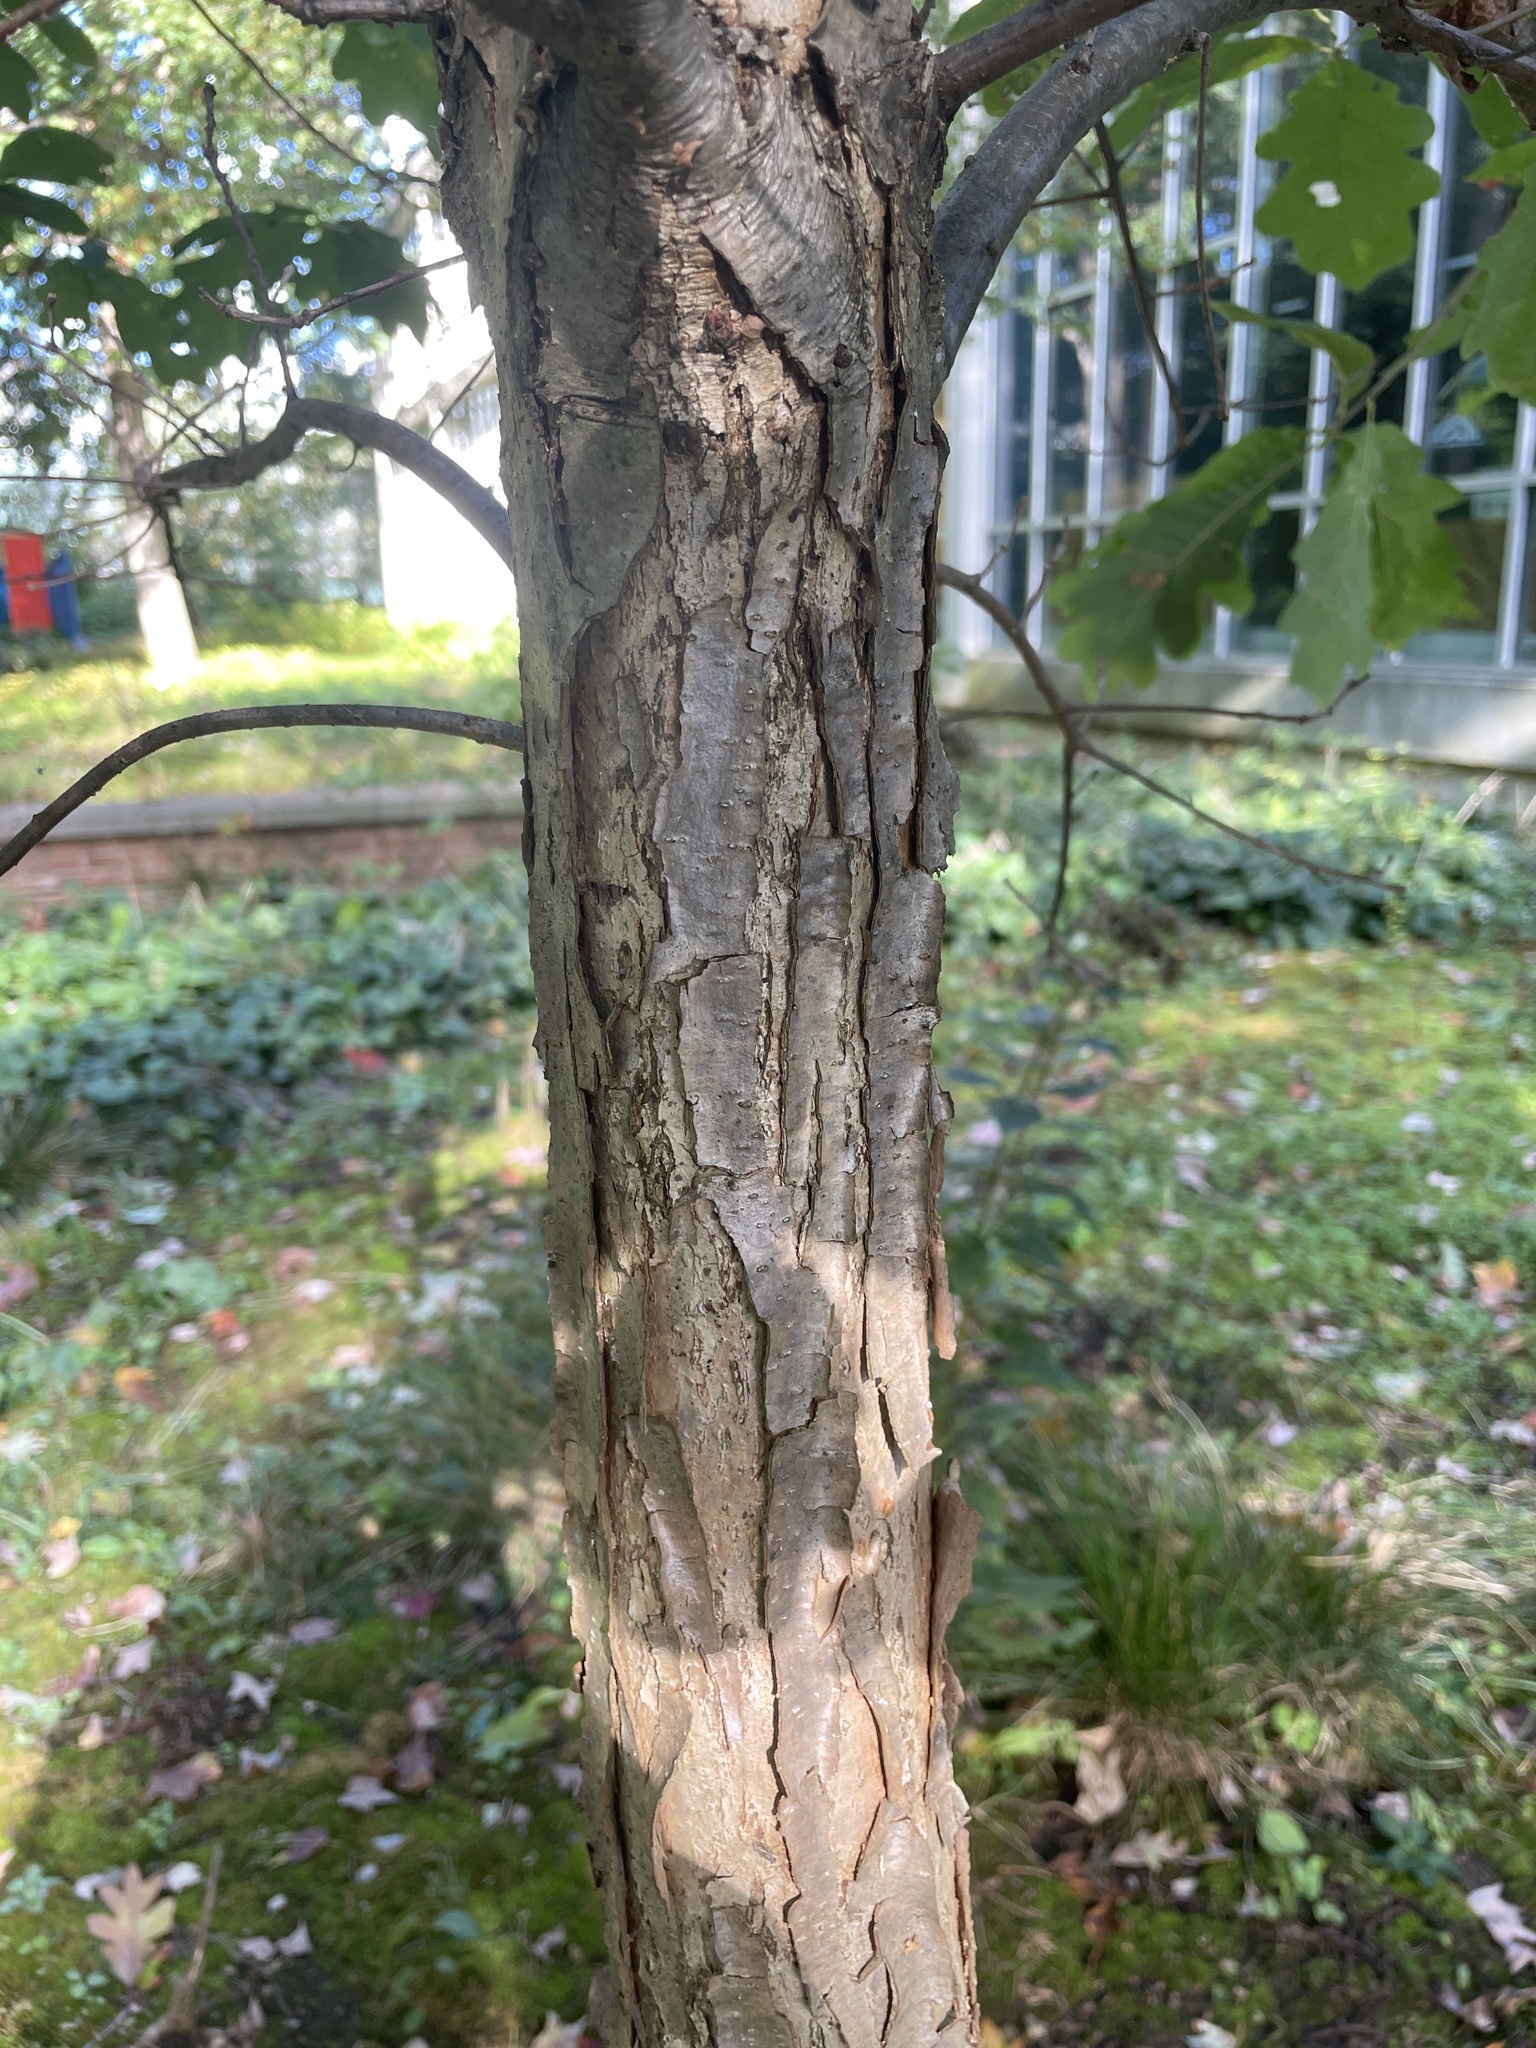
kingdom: Animalia
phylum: Arthropoda
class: Insecta
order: Hymenoptera
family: Cynipidae
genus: Disholcaspis
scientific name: Disholcaspis quercusglobulus
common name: Round bullet gall wasp
